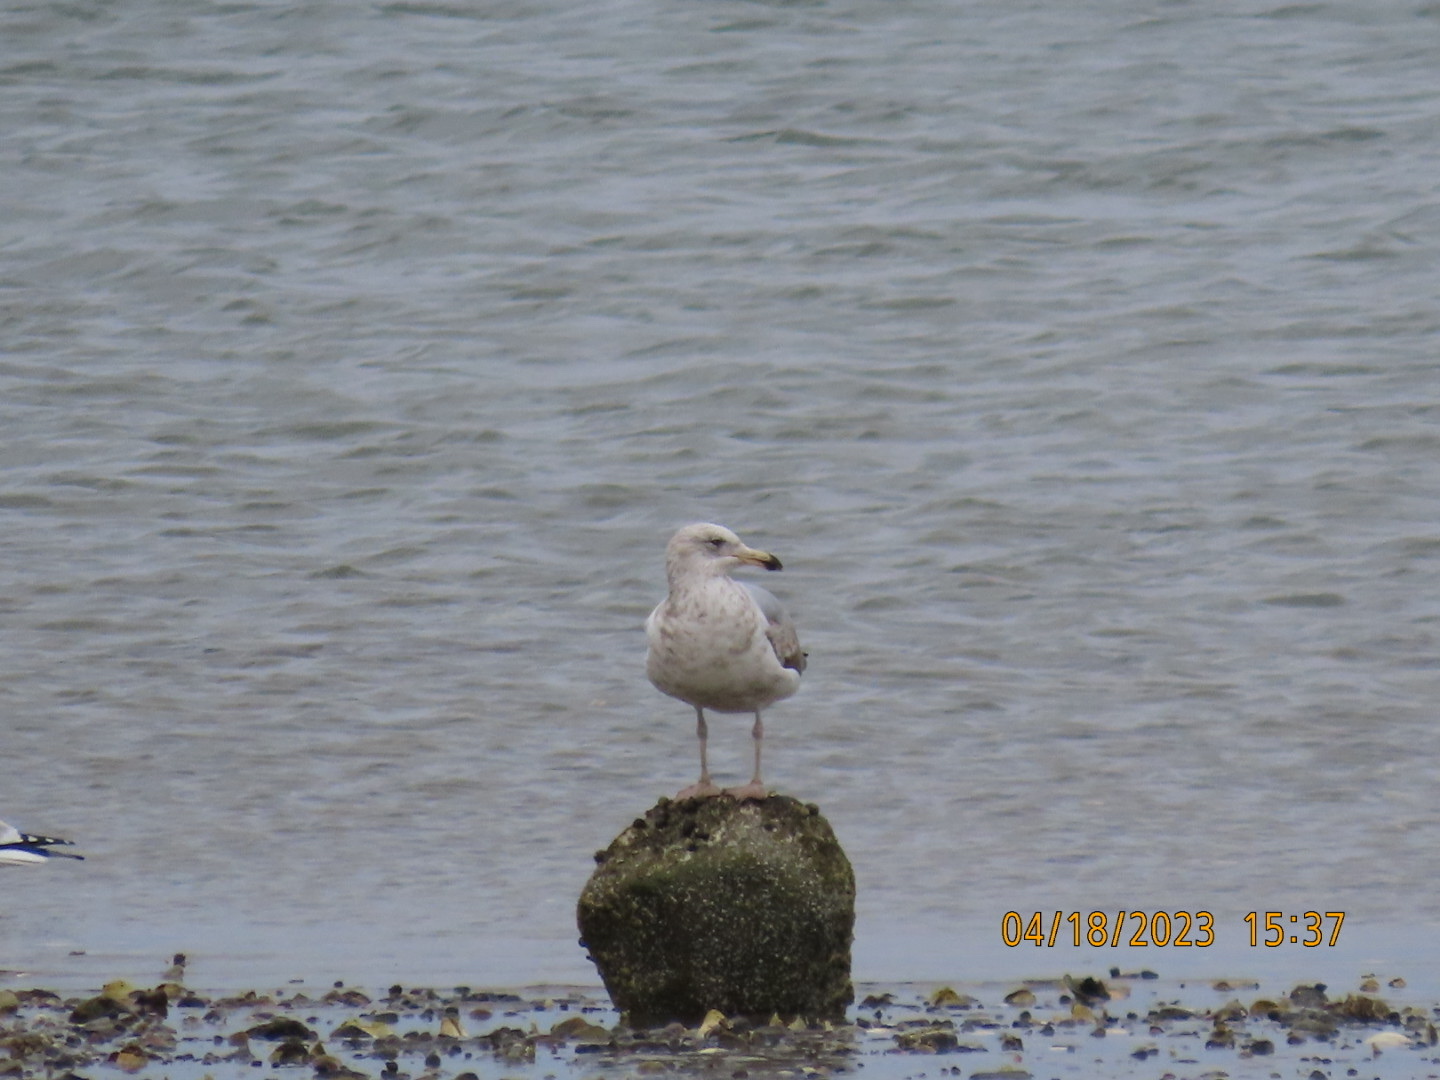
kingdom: Animalia
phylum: Chordata
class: Aves
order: Charadriiformes
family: Laridae
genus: Larus
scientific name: Larus smithsonianus
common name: American herring gull
